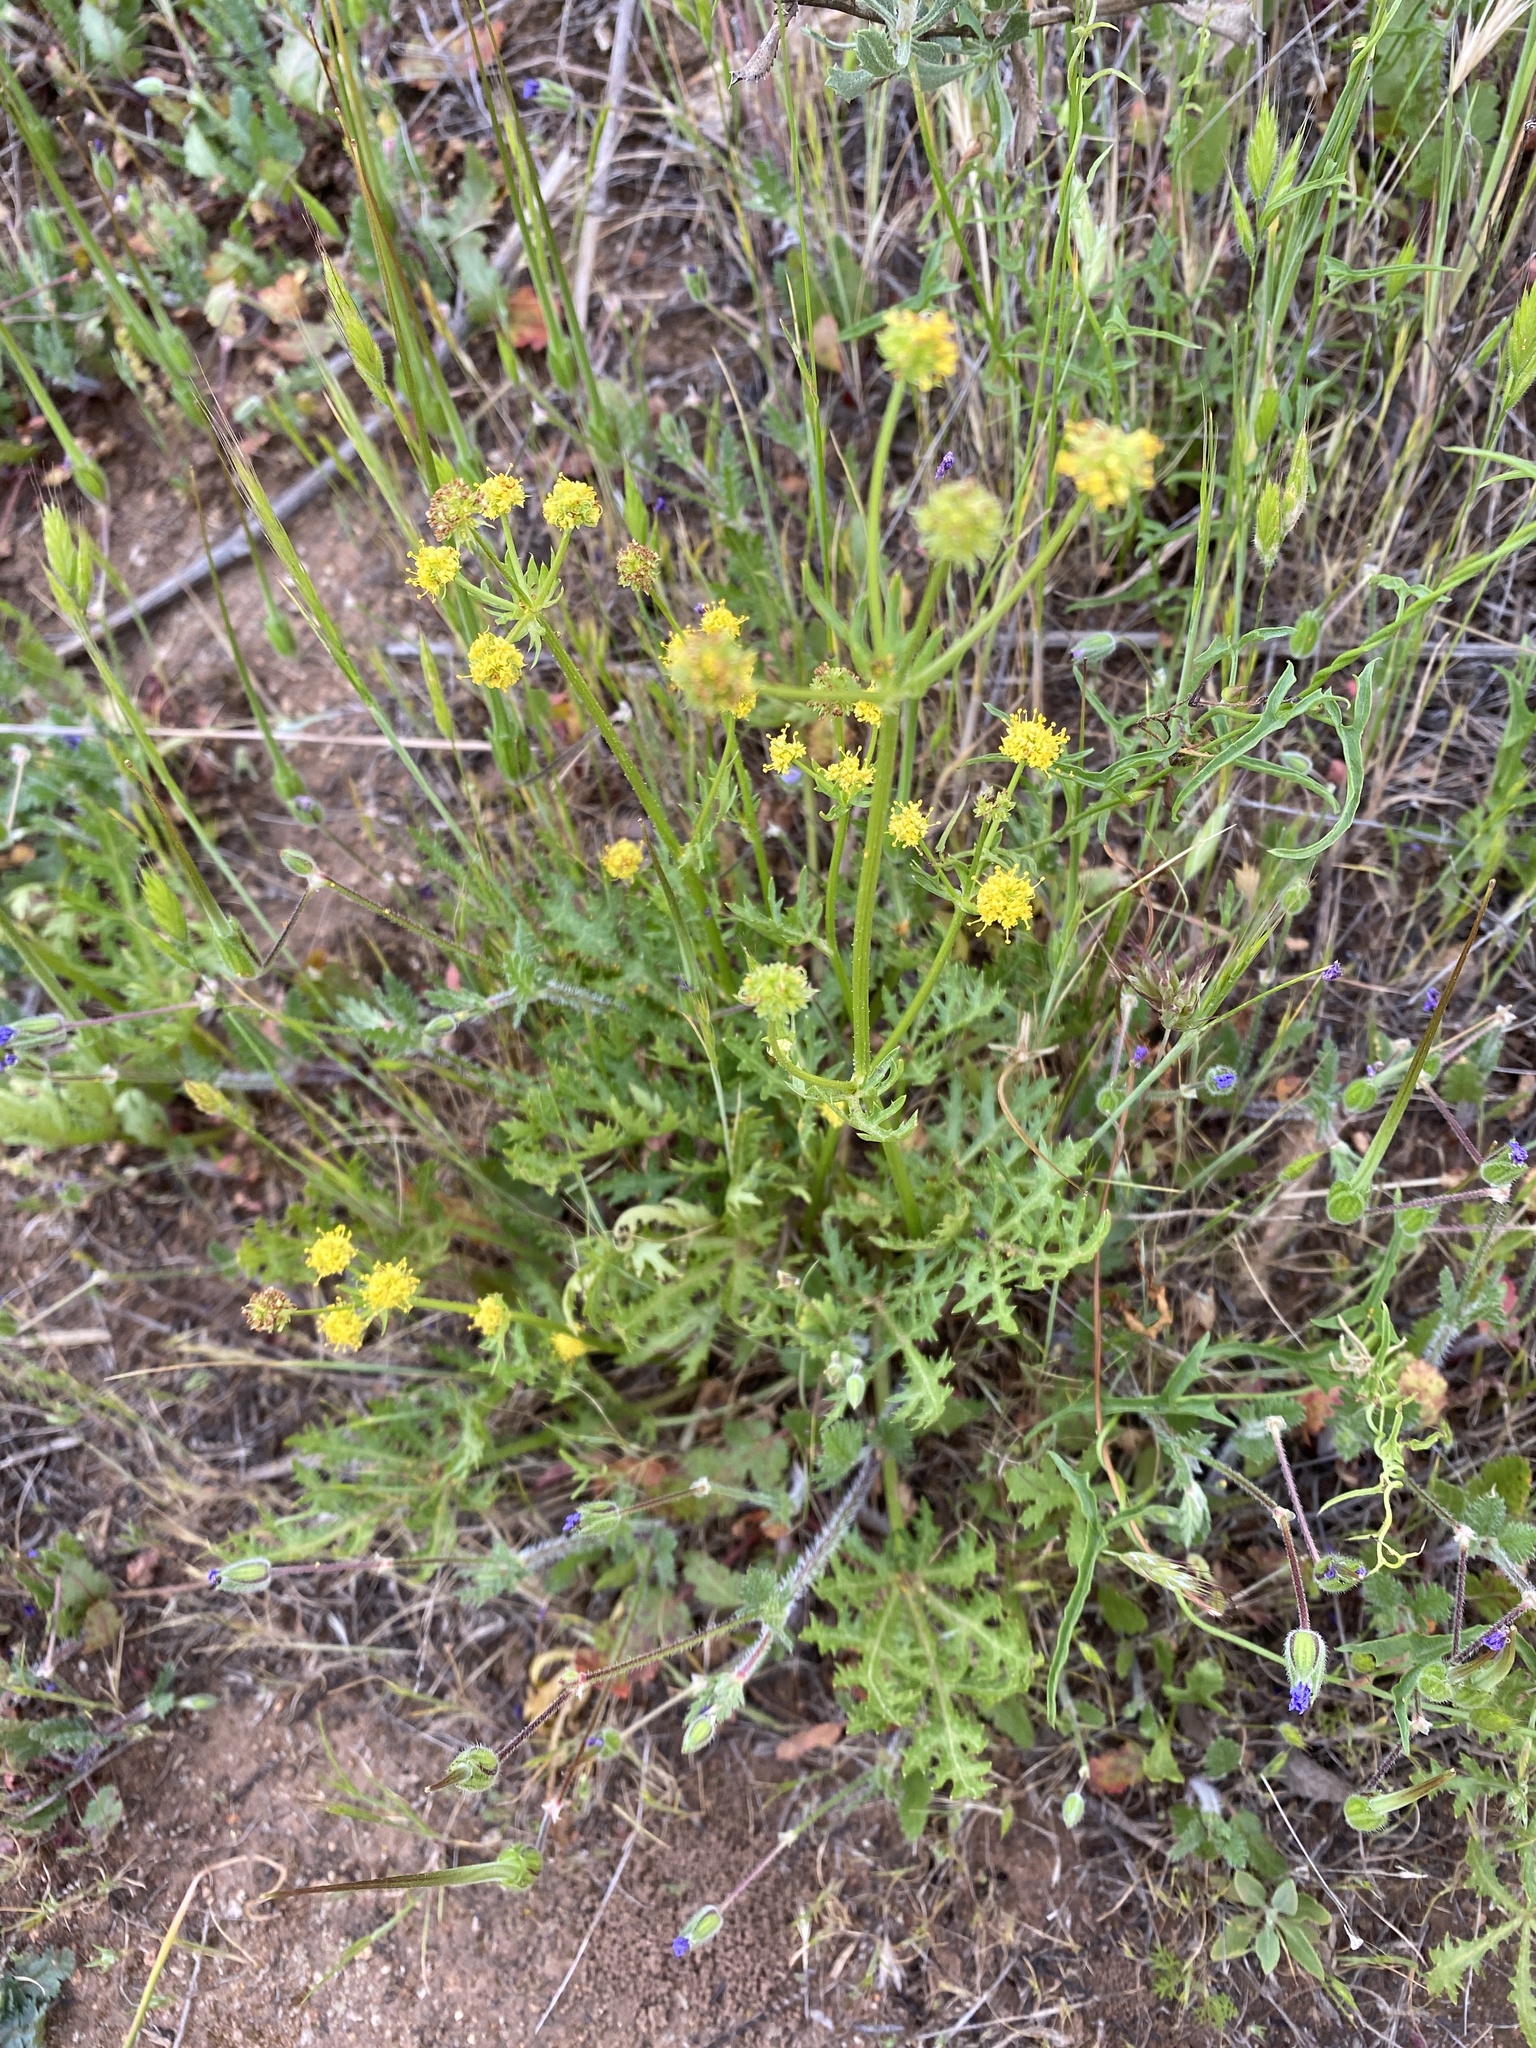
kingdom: Plantae
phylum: Tracheophyta
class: Magnoliopsida
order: Apiales
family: Apiaceae
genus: Sanicula
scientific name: Sanicula arguta
